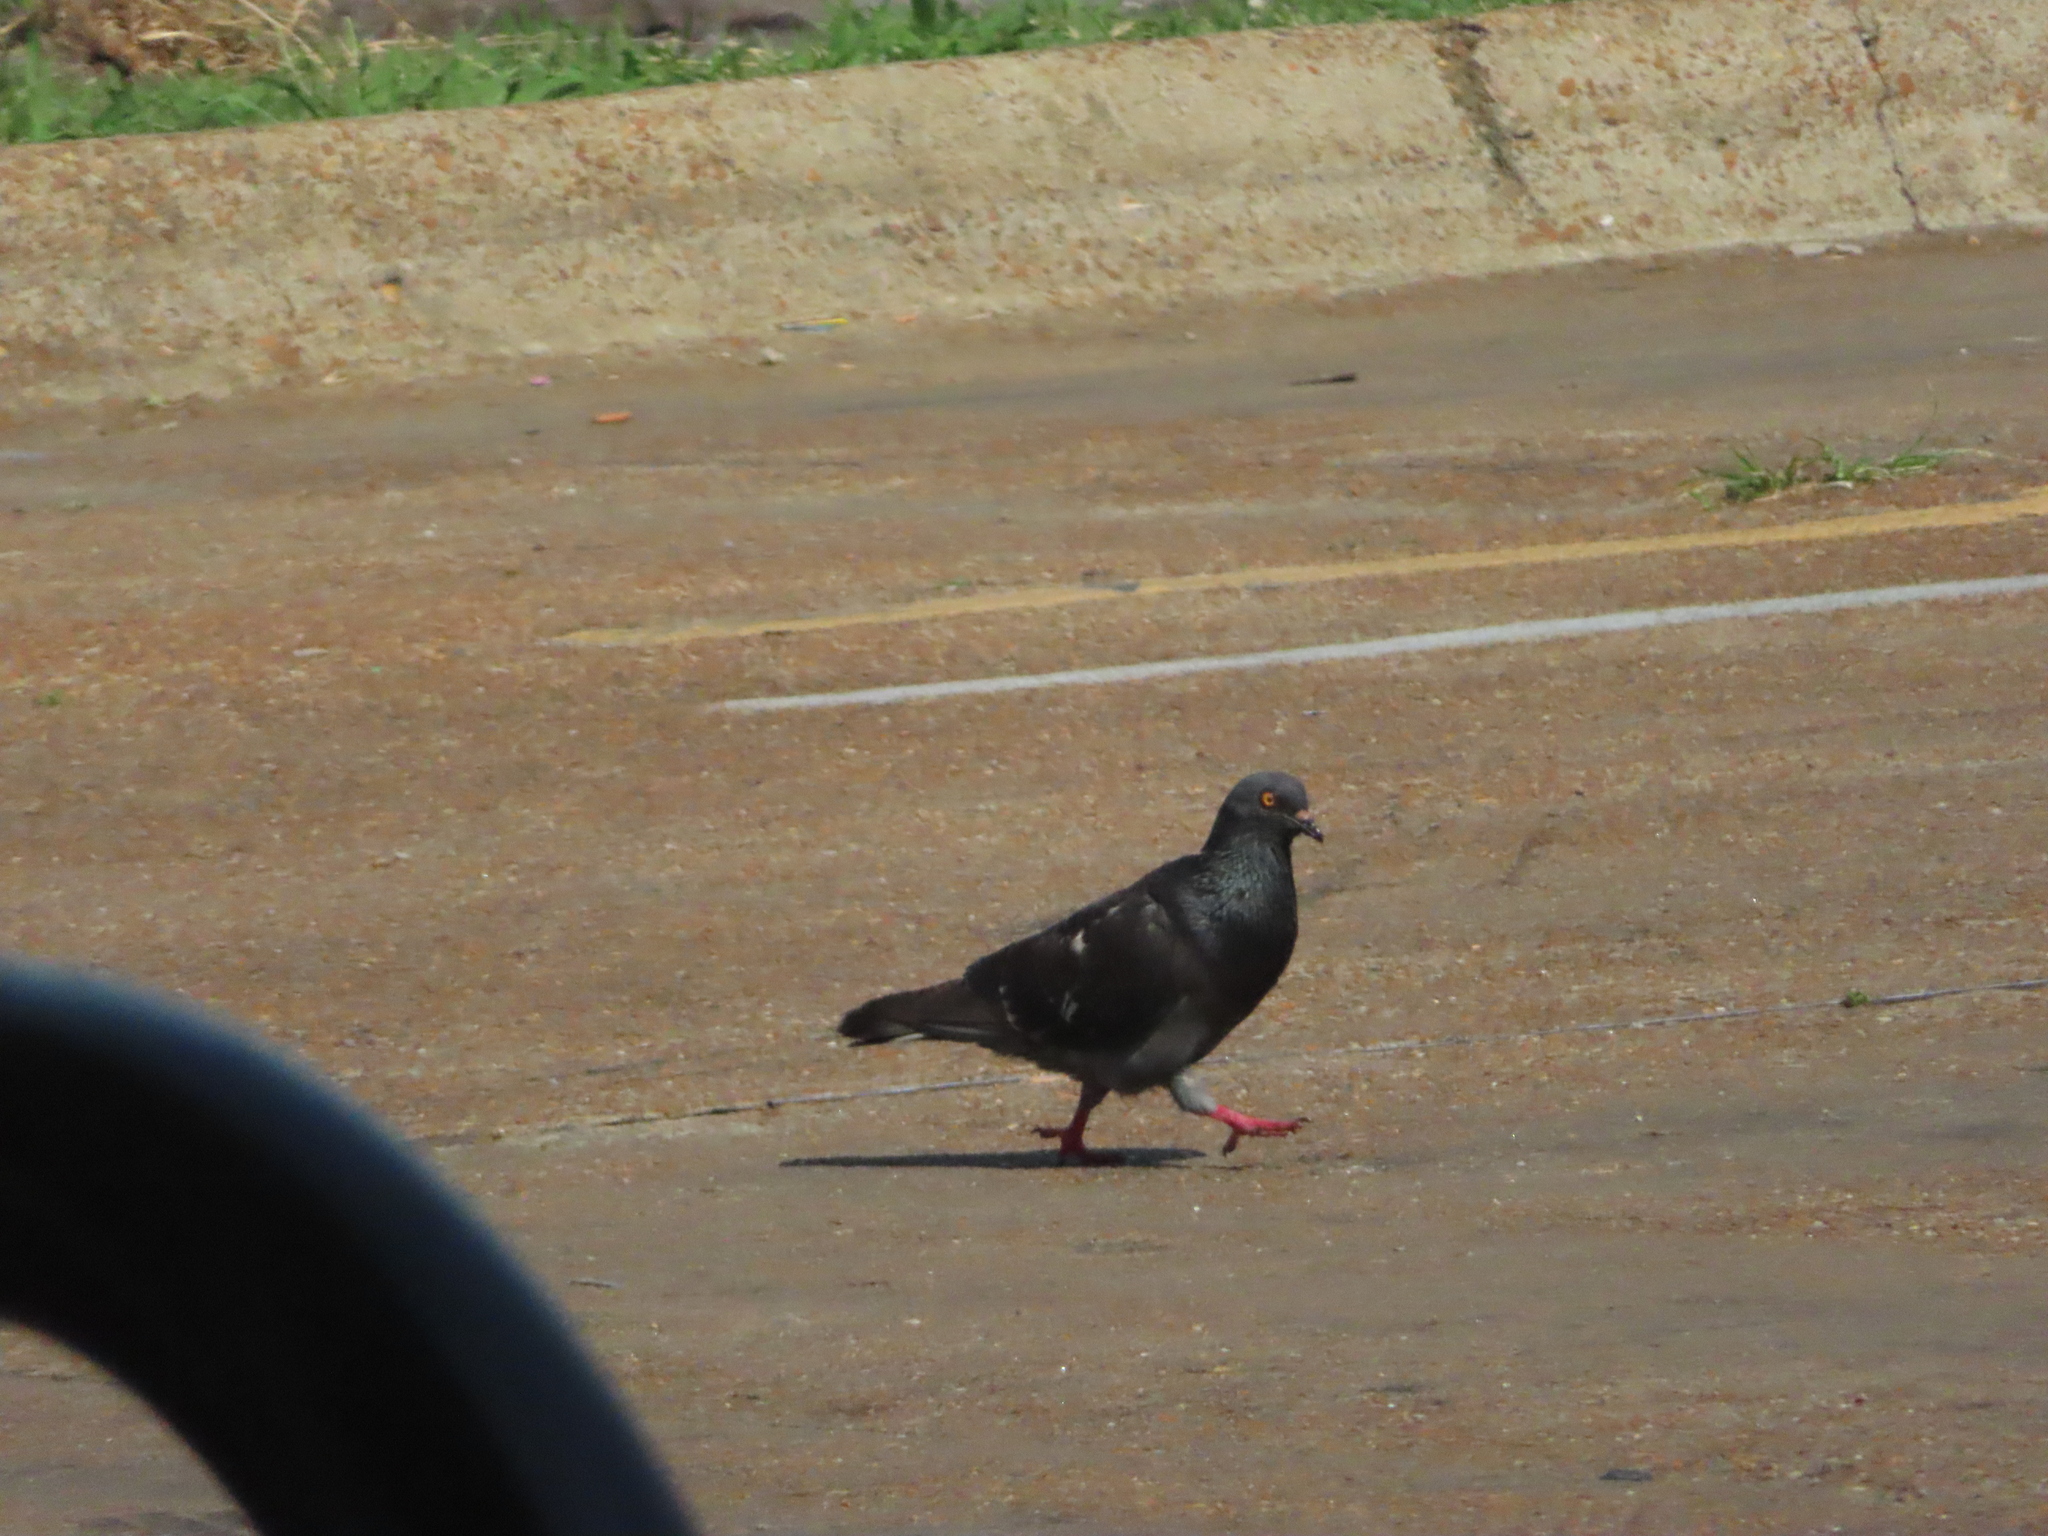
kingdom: Animalia
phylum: Chordata
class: Aves
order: Columbiformes
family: Columbidae
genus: Columba
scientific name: Columba livia
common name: Rock pigeon
